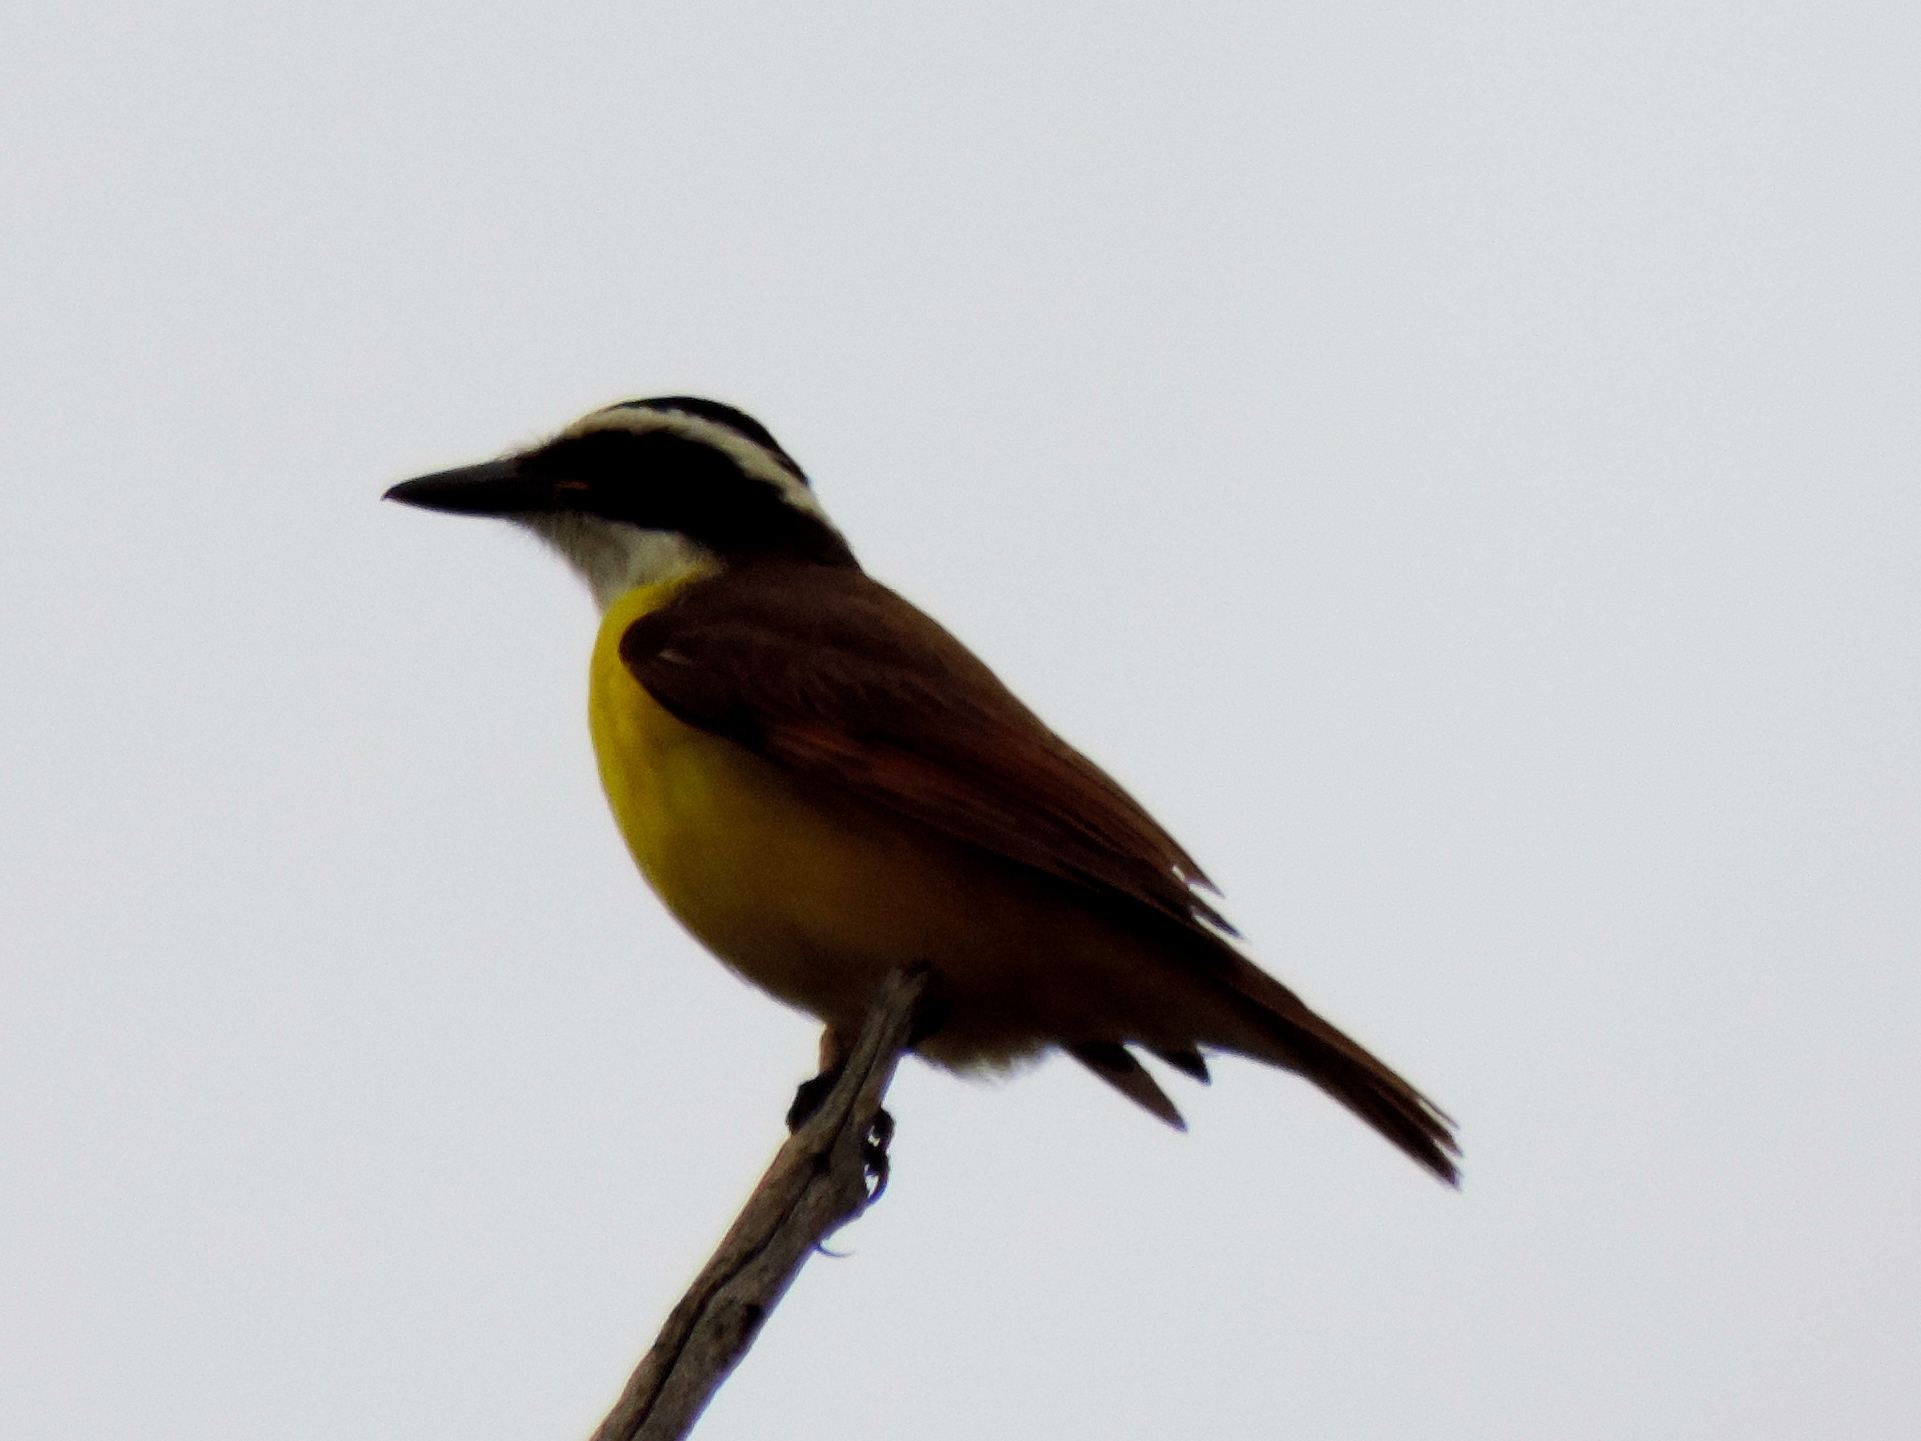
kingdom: Animalia
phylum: Chordata
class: Aves
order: Passeriformes
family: Tyrannidae
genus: Pitangus
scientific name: Pitangus sulphuratus
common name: Great kiskadee
